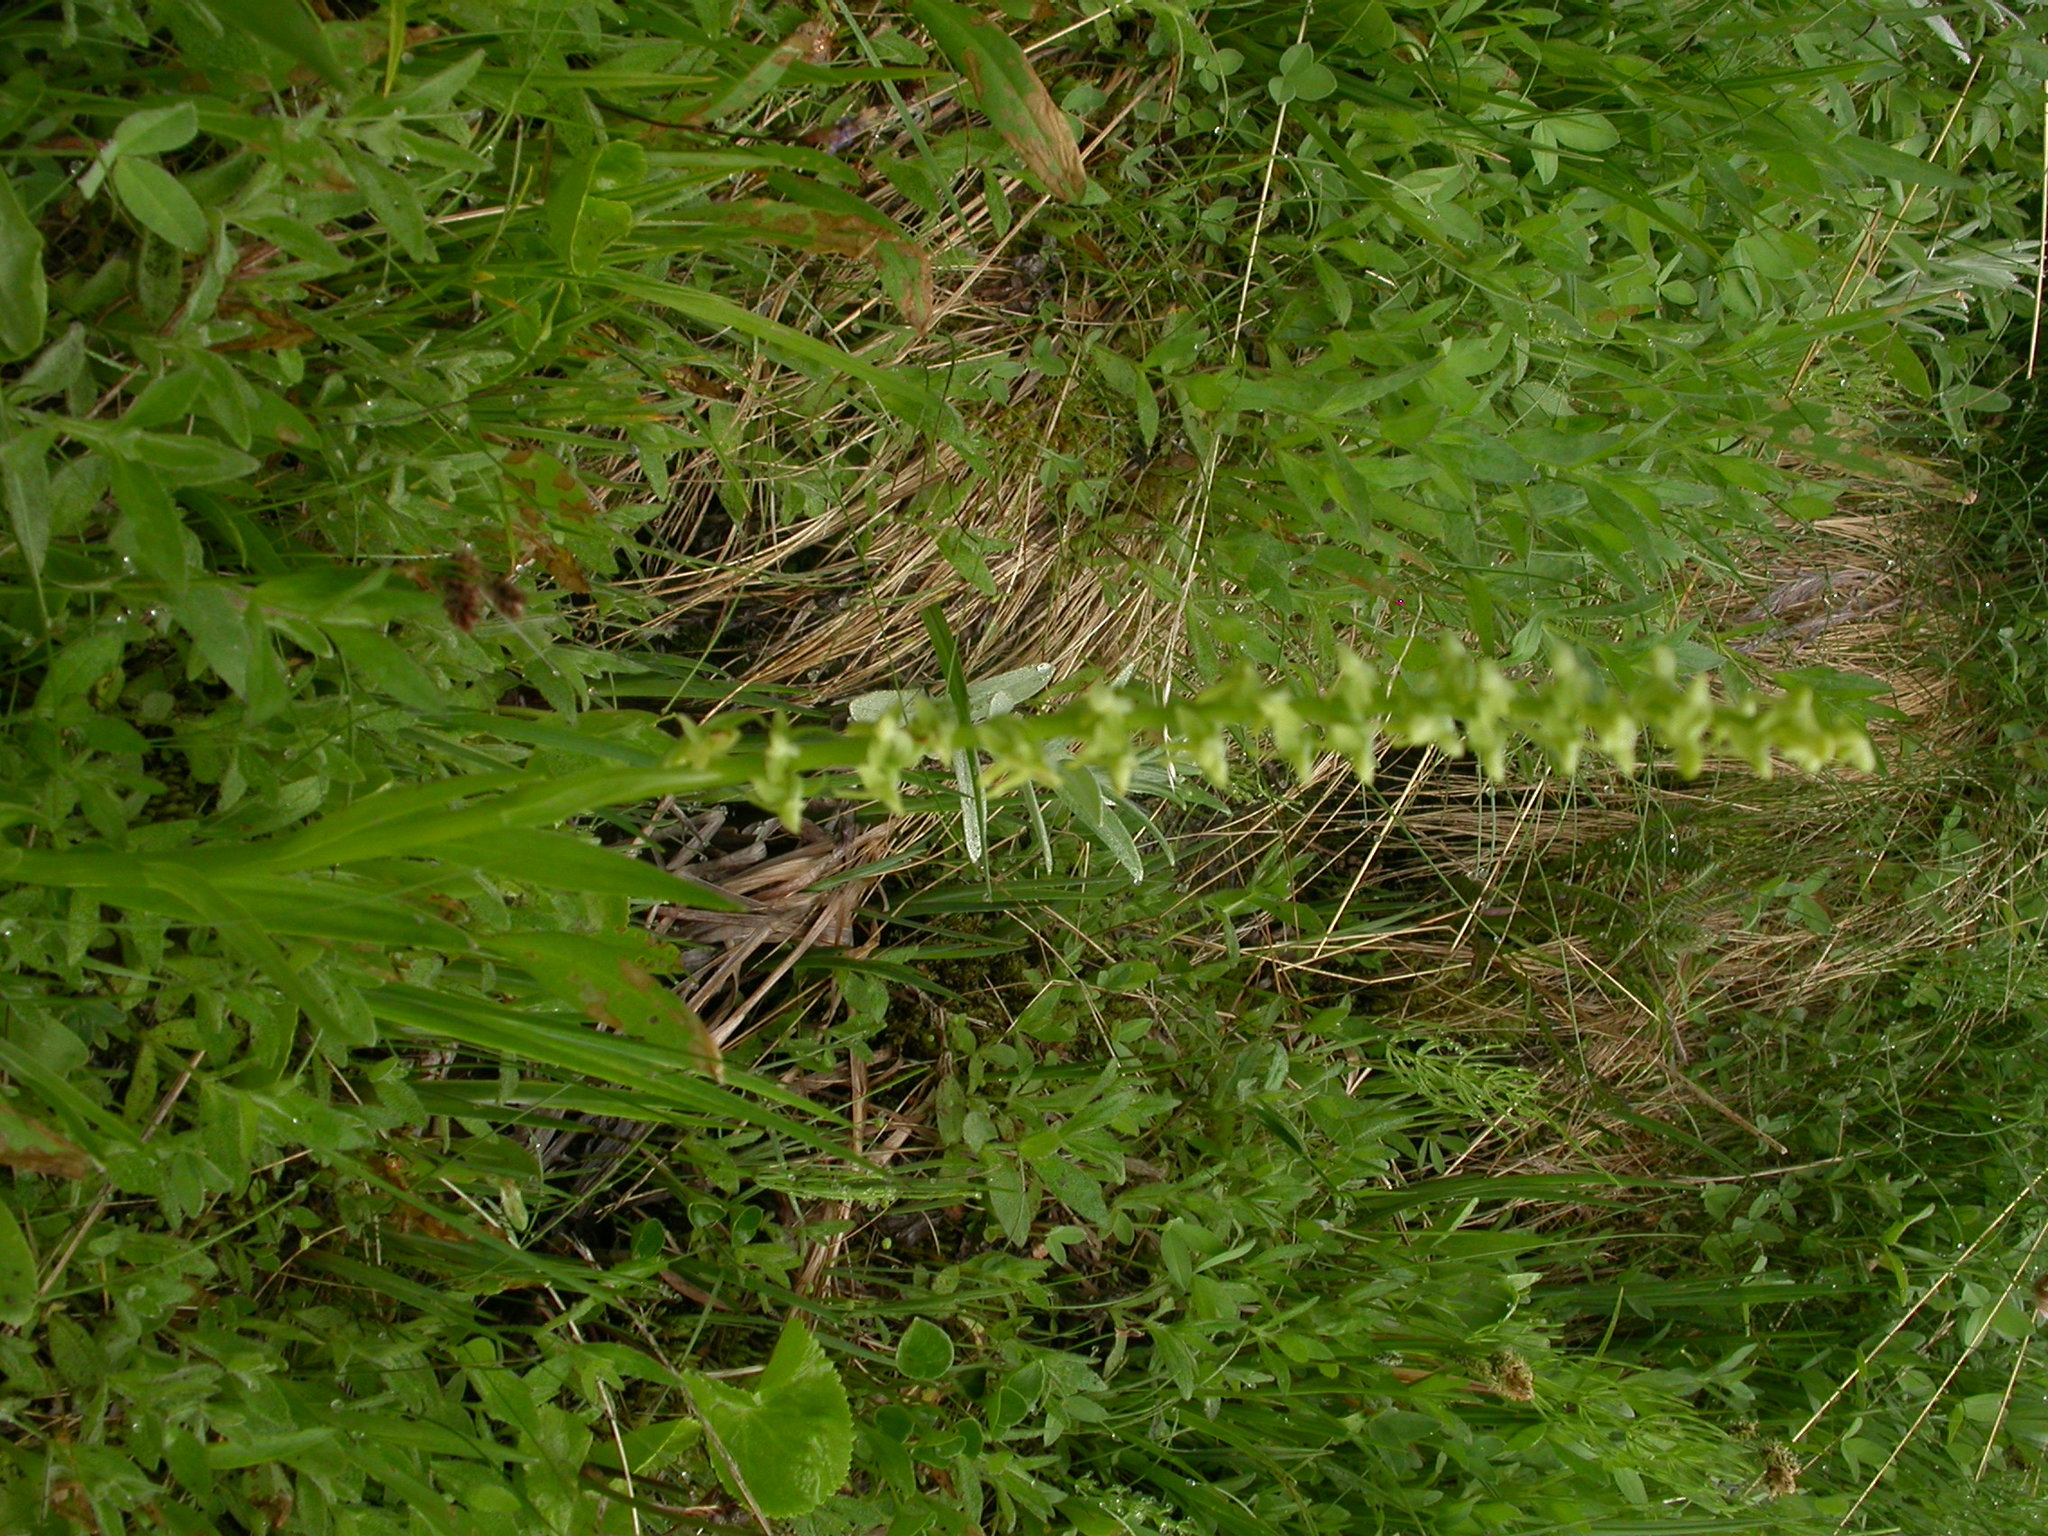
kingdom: Plantae
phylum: Tracheophyta
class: Liliopsida
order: Asparagales
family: Orchidaceae
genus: Platanthera
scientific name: Platanthera stricta
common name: Slender bog orchid
